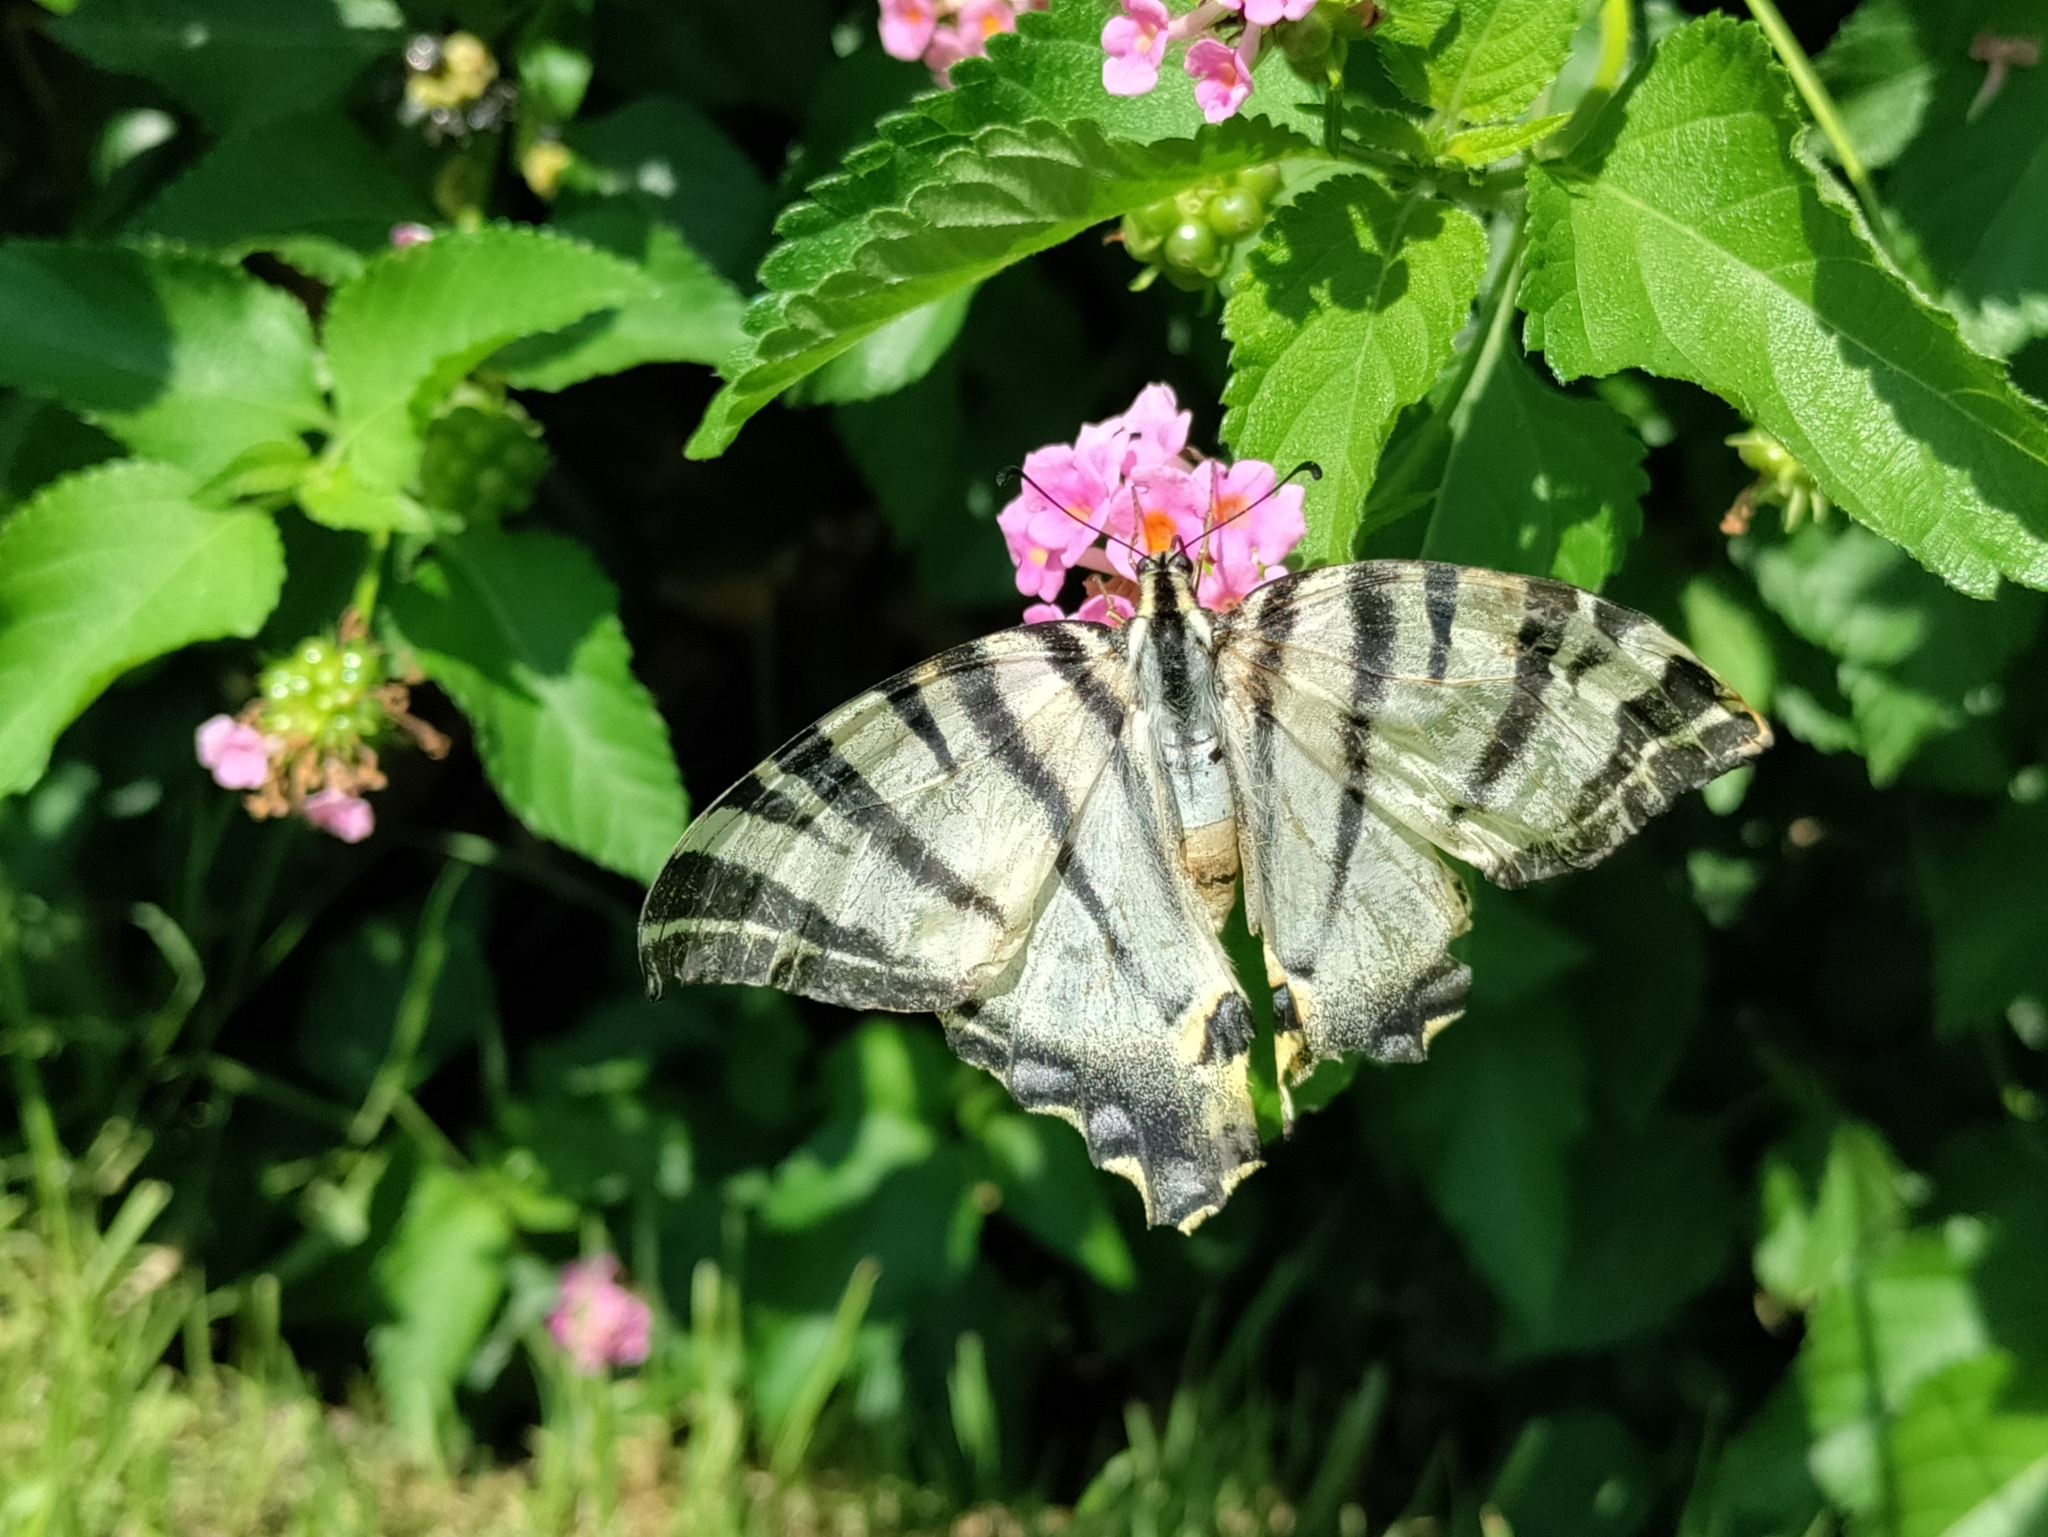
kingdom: Animalia
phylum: Arthropoda
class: Insecta
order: Lepidoptera
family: Papilionidae
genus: Iphiclides
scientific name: Iphiclides podalirius
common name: Scarce swallowtail
